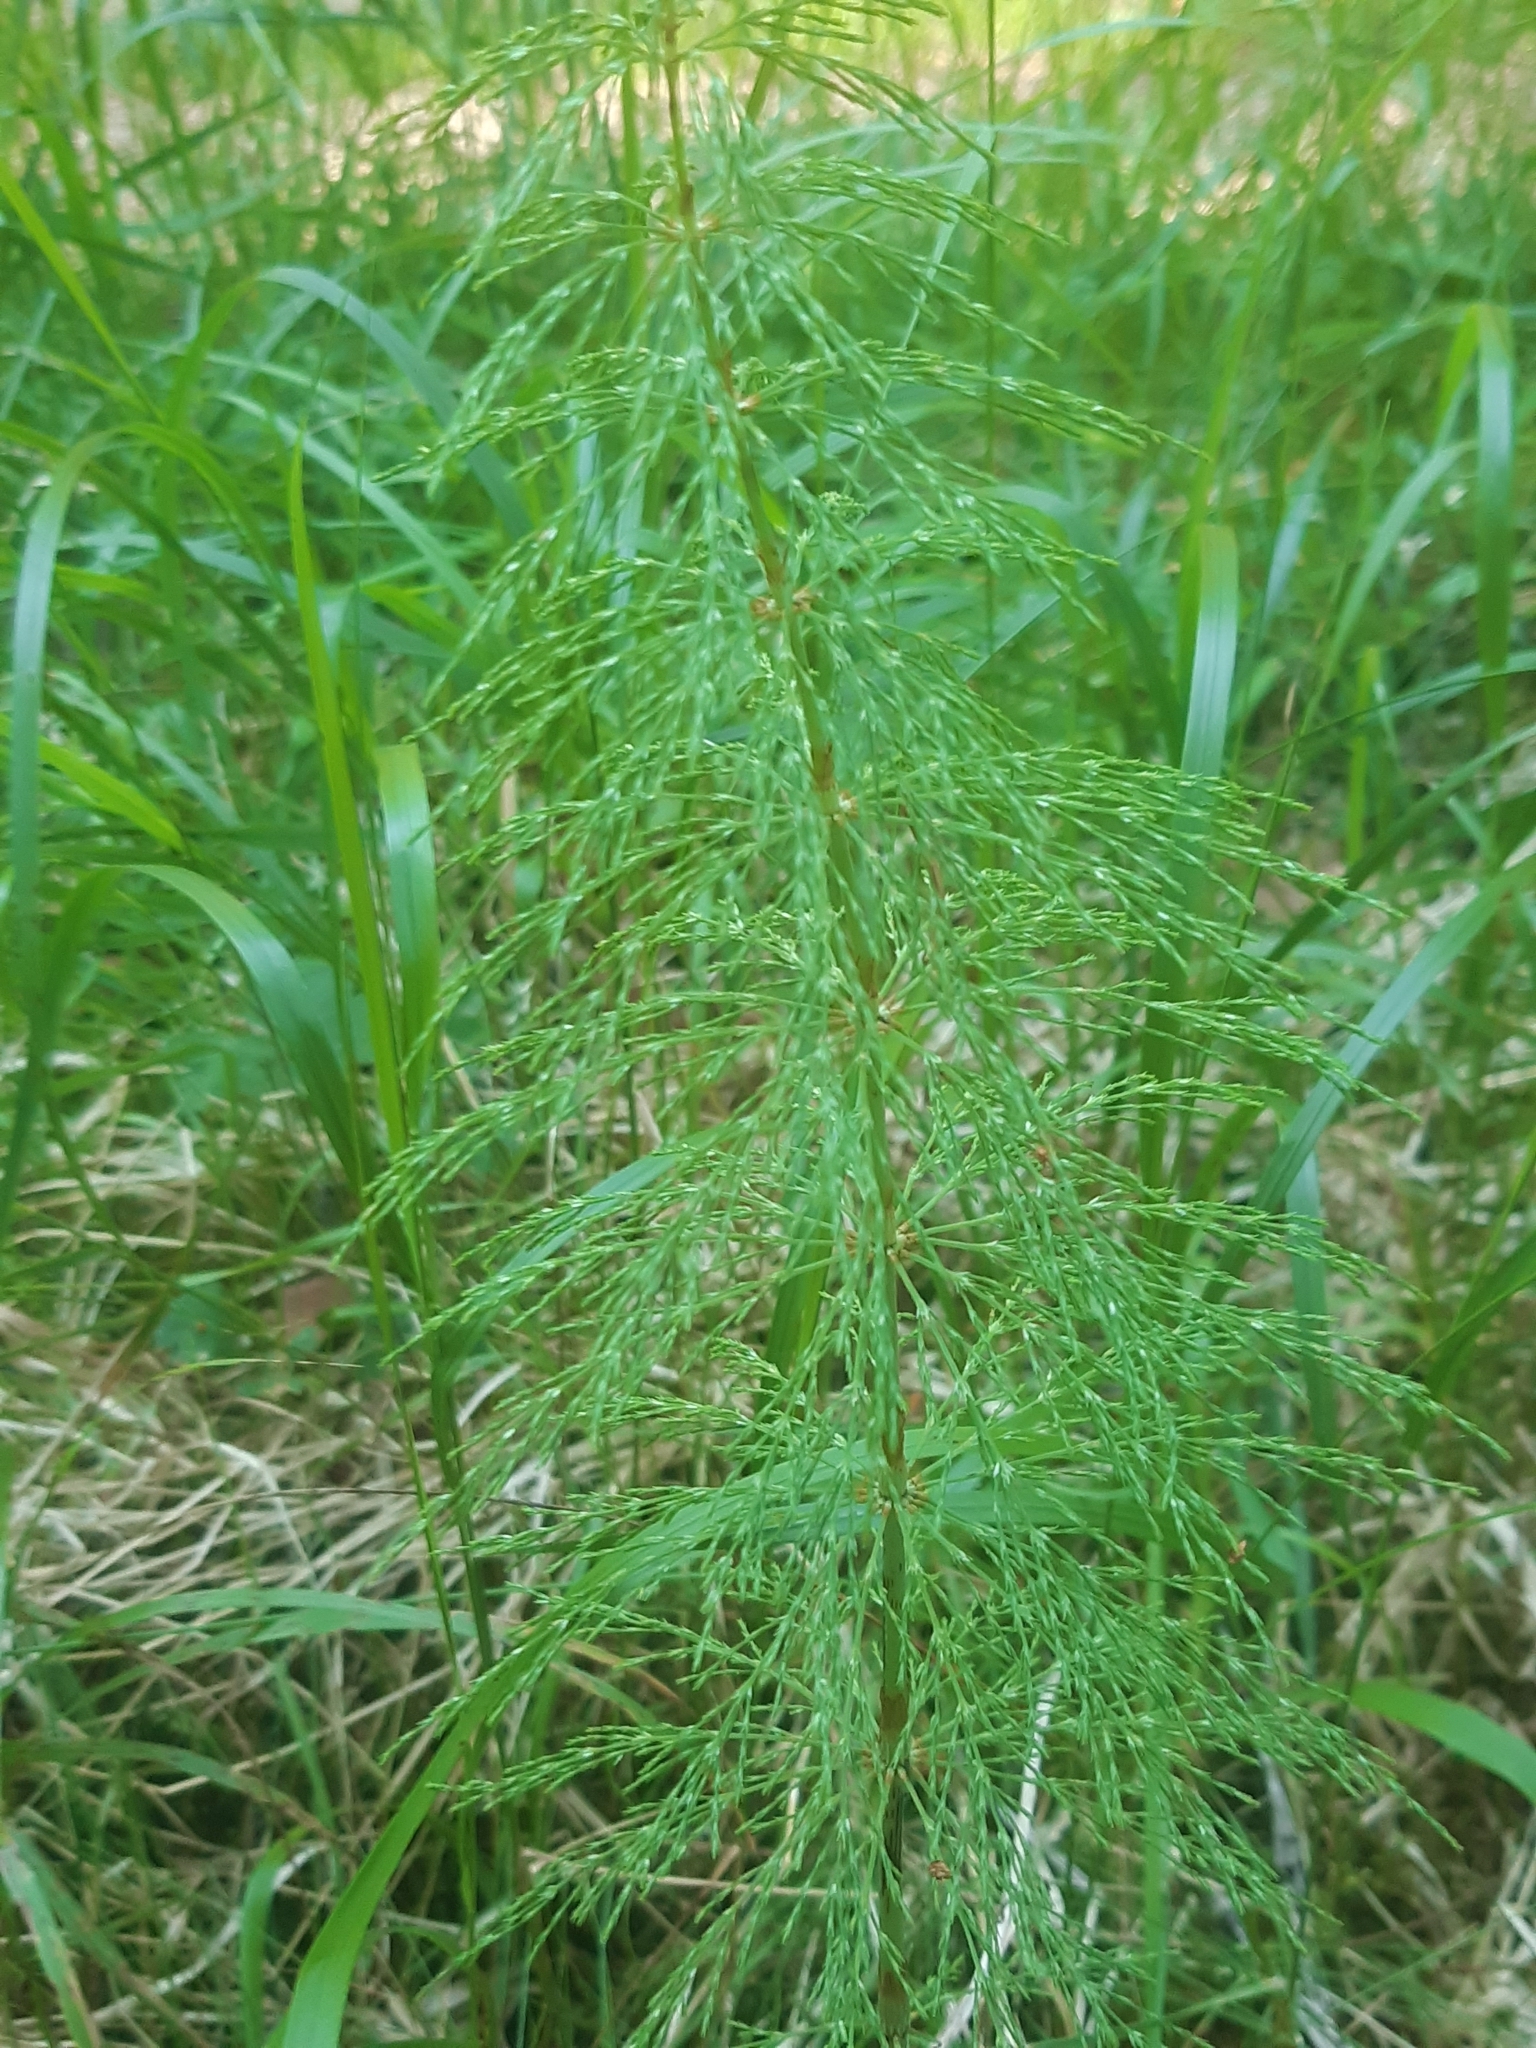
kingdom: Plantae
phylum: Tracheophyta
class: Polypodiopsida
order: Equisetales
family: Equisetaceae
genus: Equisetum
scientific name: Equisetum sylvaticum
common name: Wood horsetail
